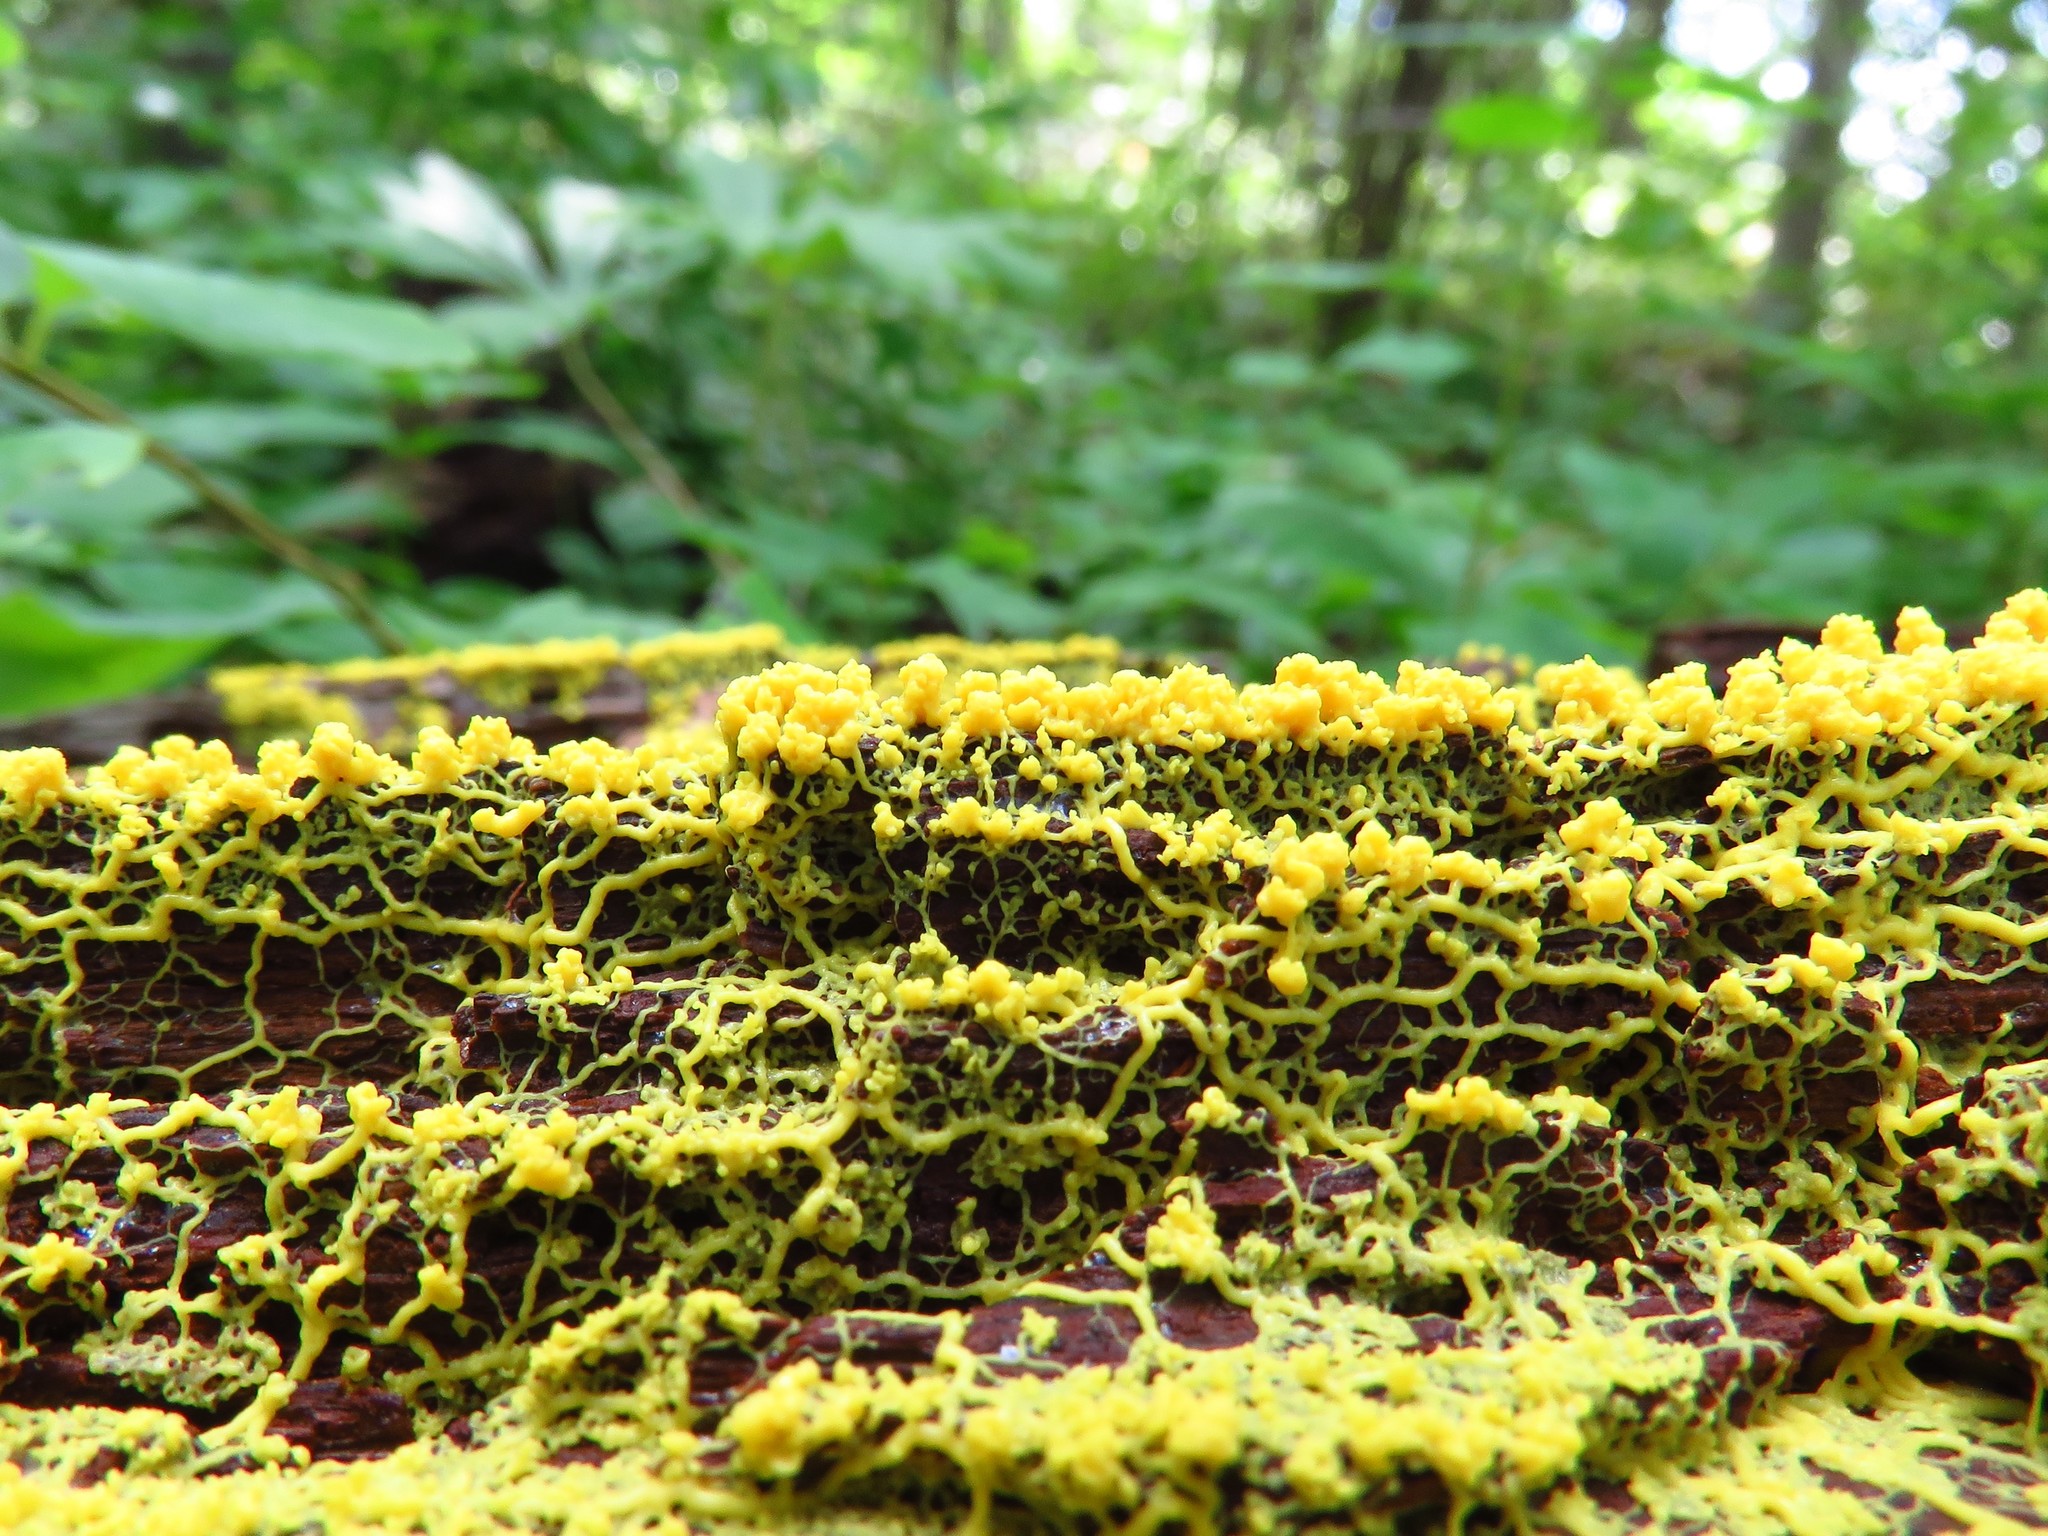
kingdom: Protozoa
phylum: Mycetozoa
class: Myxomycetes
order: Physarales
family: Physaraceae
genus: Fuligo
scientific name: Fuligo septica
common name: Dog vomit slime mold
